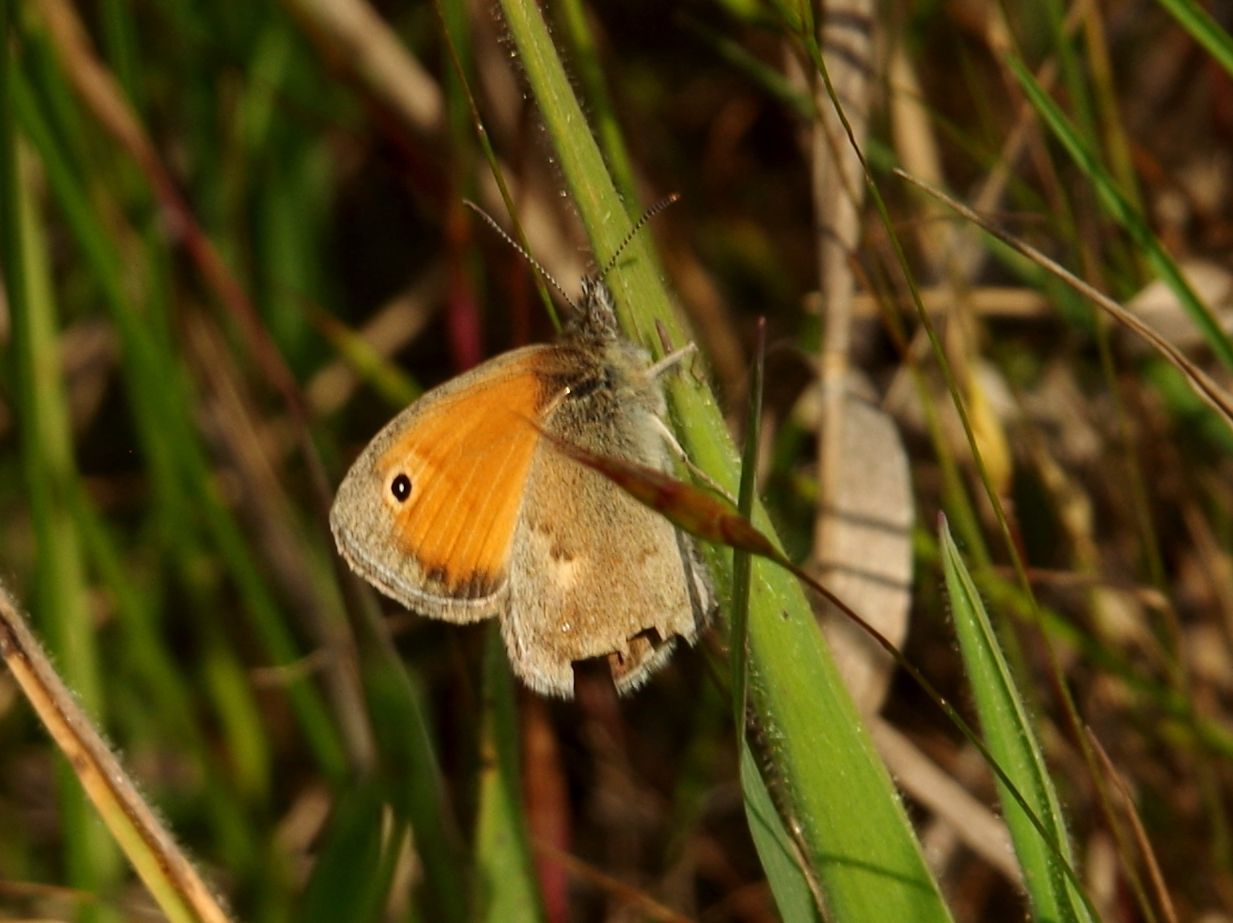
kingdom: Animalia
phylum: Arthropoda
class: Insecta
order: Lepidoptera
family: Nymphalidae
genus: Coenonympha
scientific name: Coenonympha pamphilus
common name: Small heath
